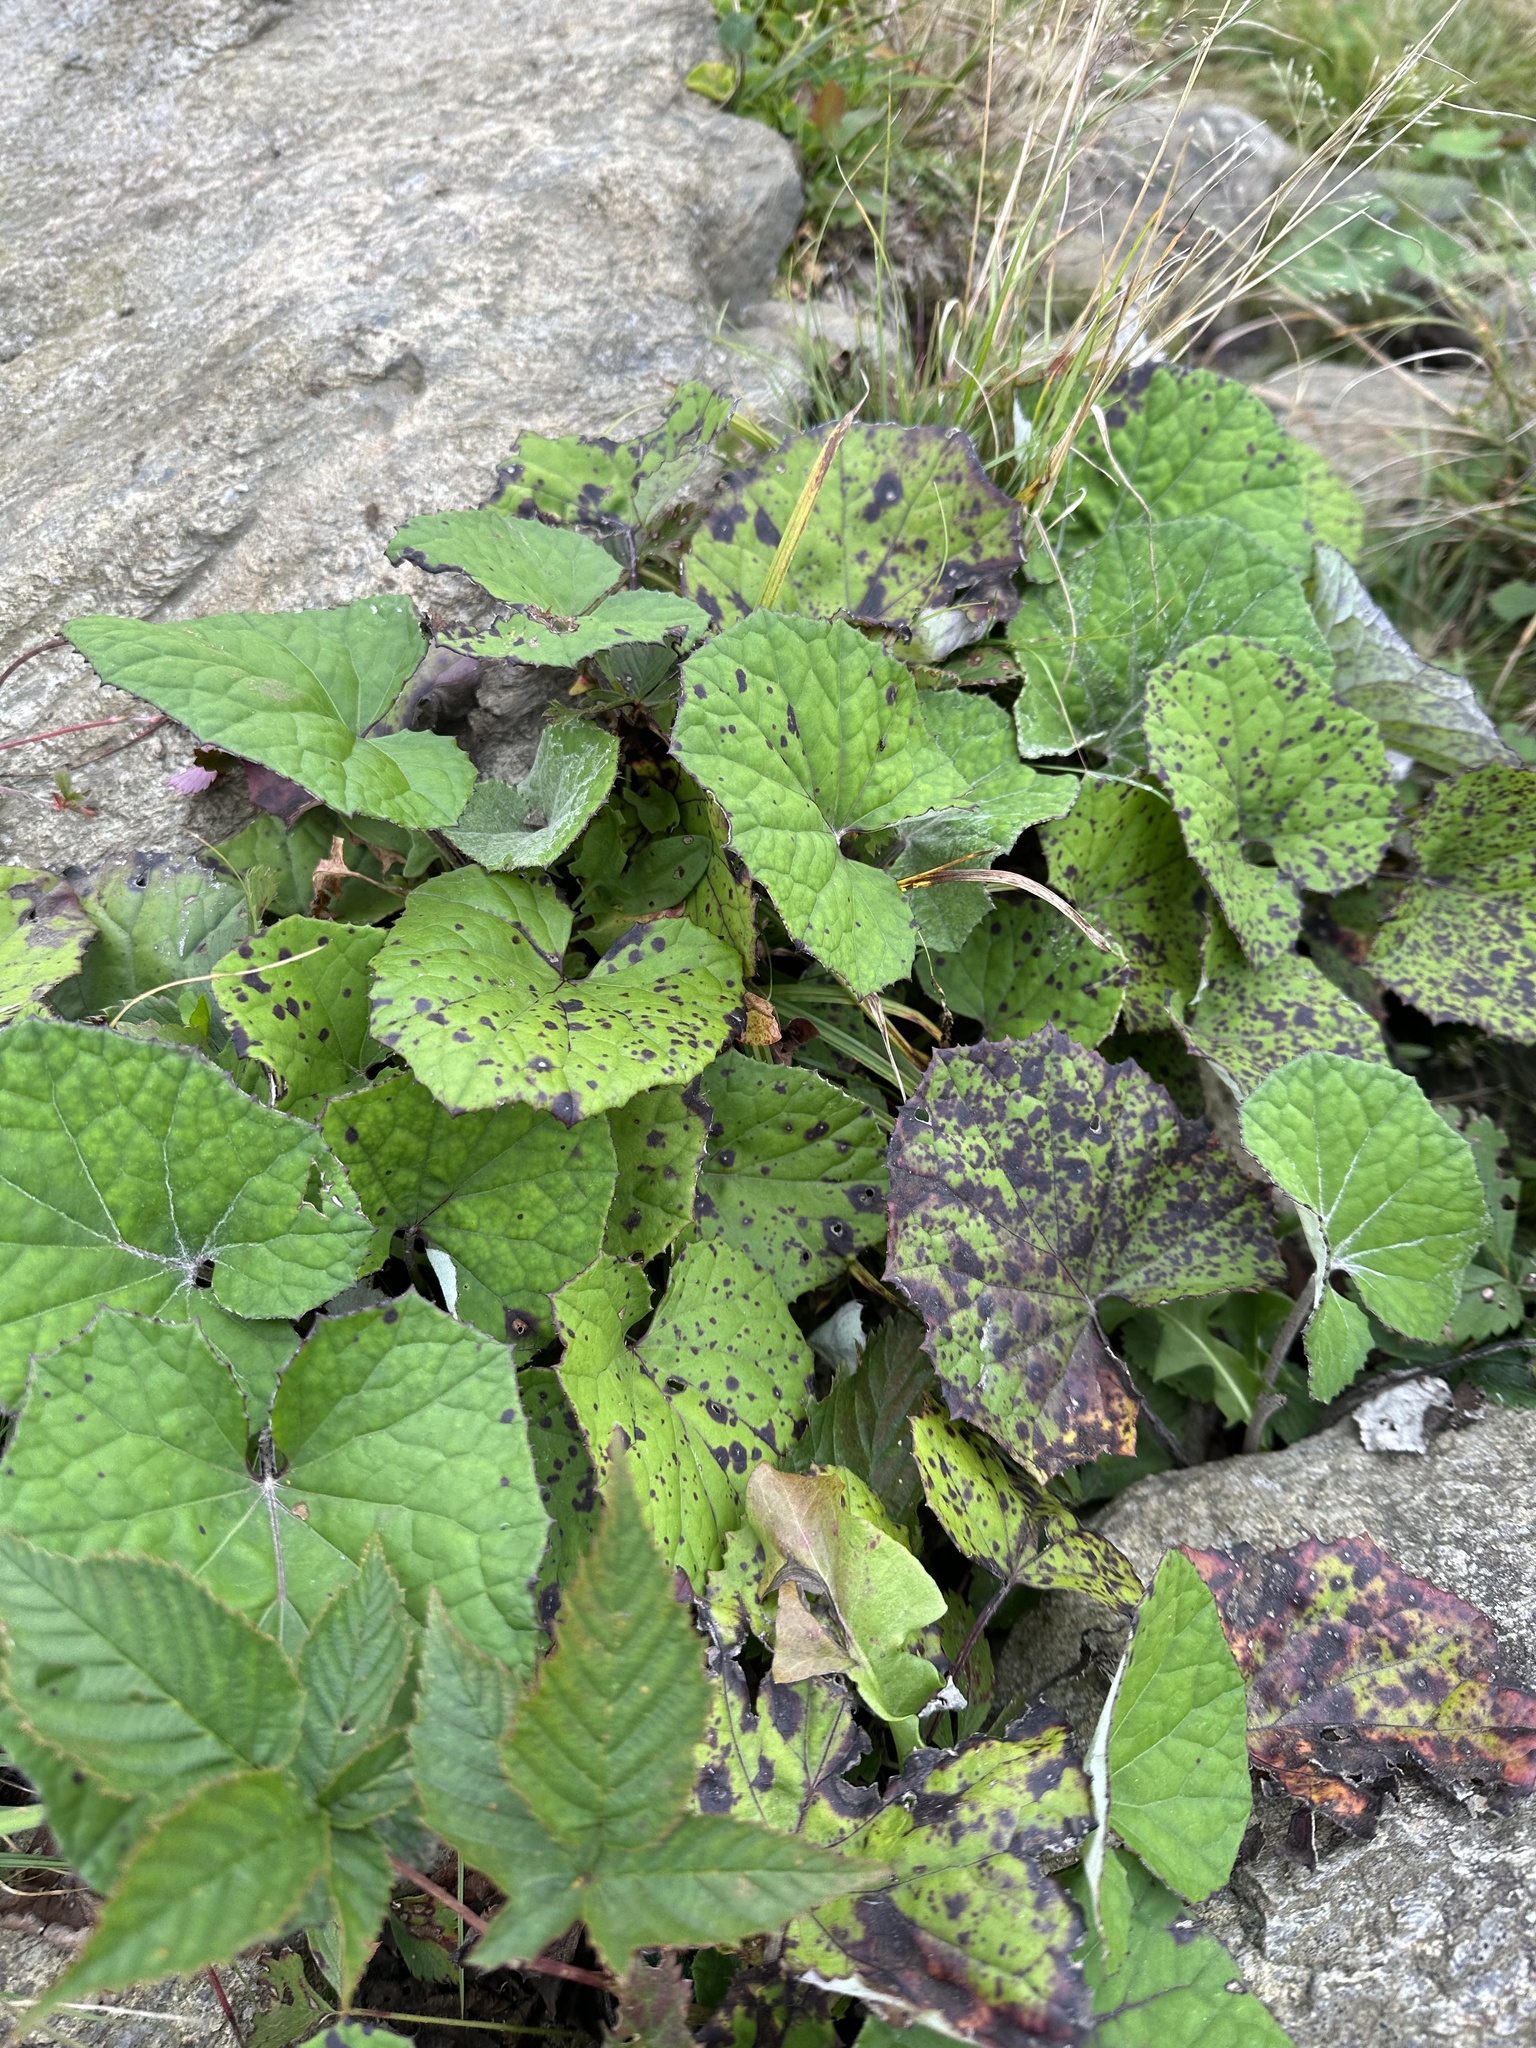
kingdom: Plantae
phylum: Tracheophyta
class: Magnoliopsida
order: Asterales
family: Asteraceae
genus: Tussilago
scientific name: Tussilago farfara
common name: Coltsfoot
